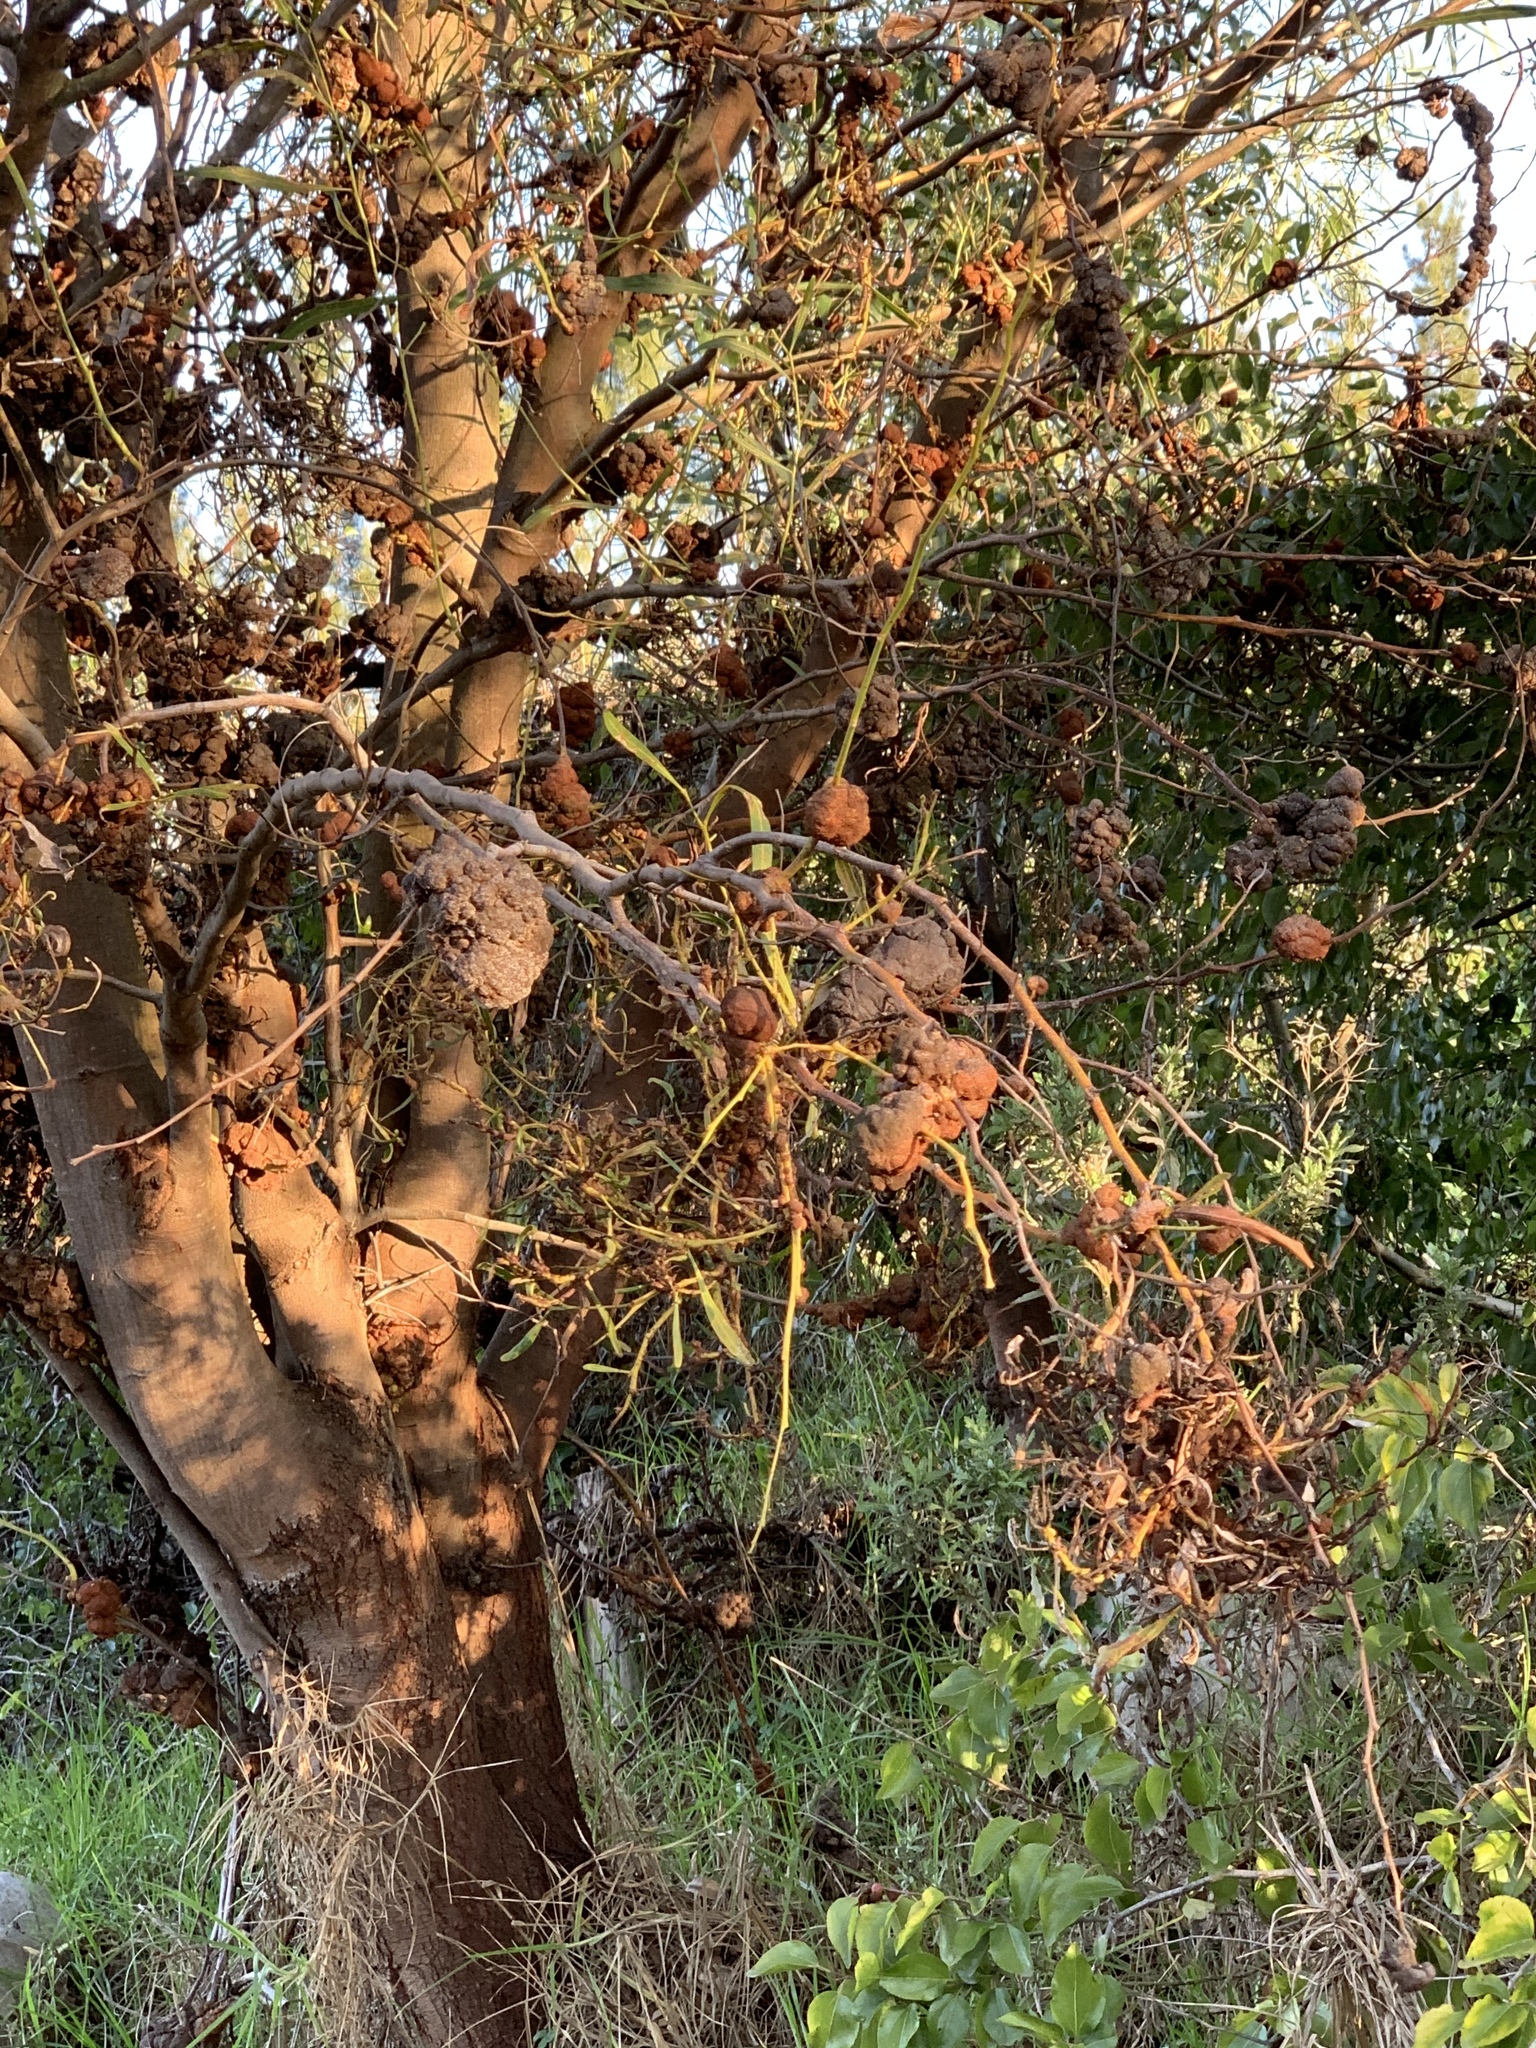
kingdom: Fungi
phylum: Basidiomycota
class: Pucciniomycetes
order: Pucciniales
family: Uromycladiaceae
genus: Uromycladium
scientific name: Uromycladium morrisii
